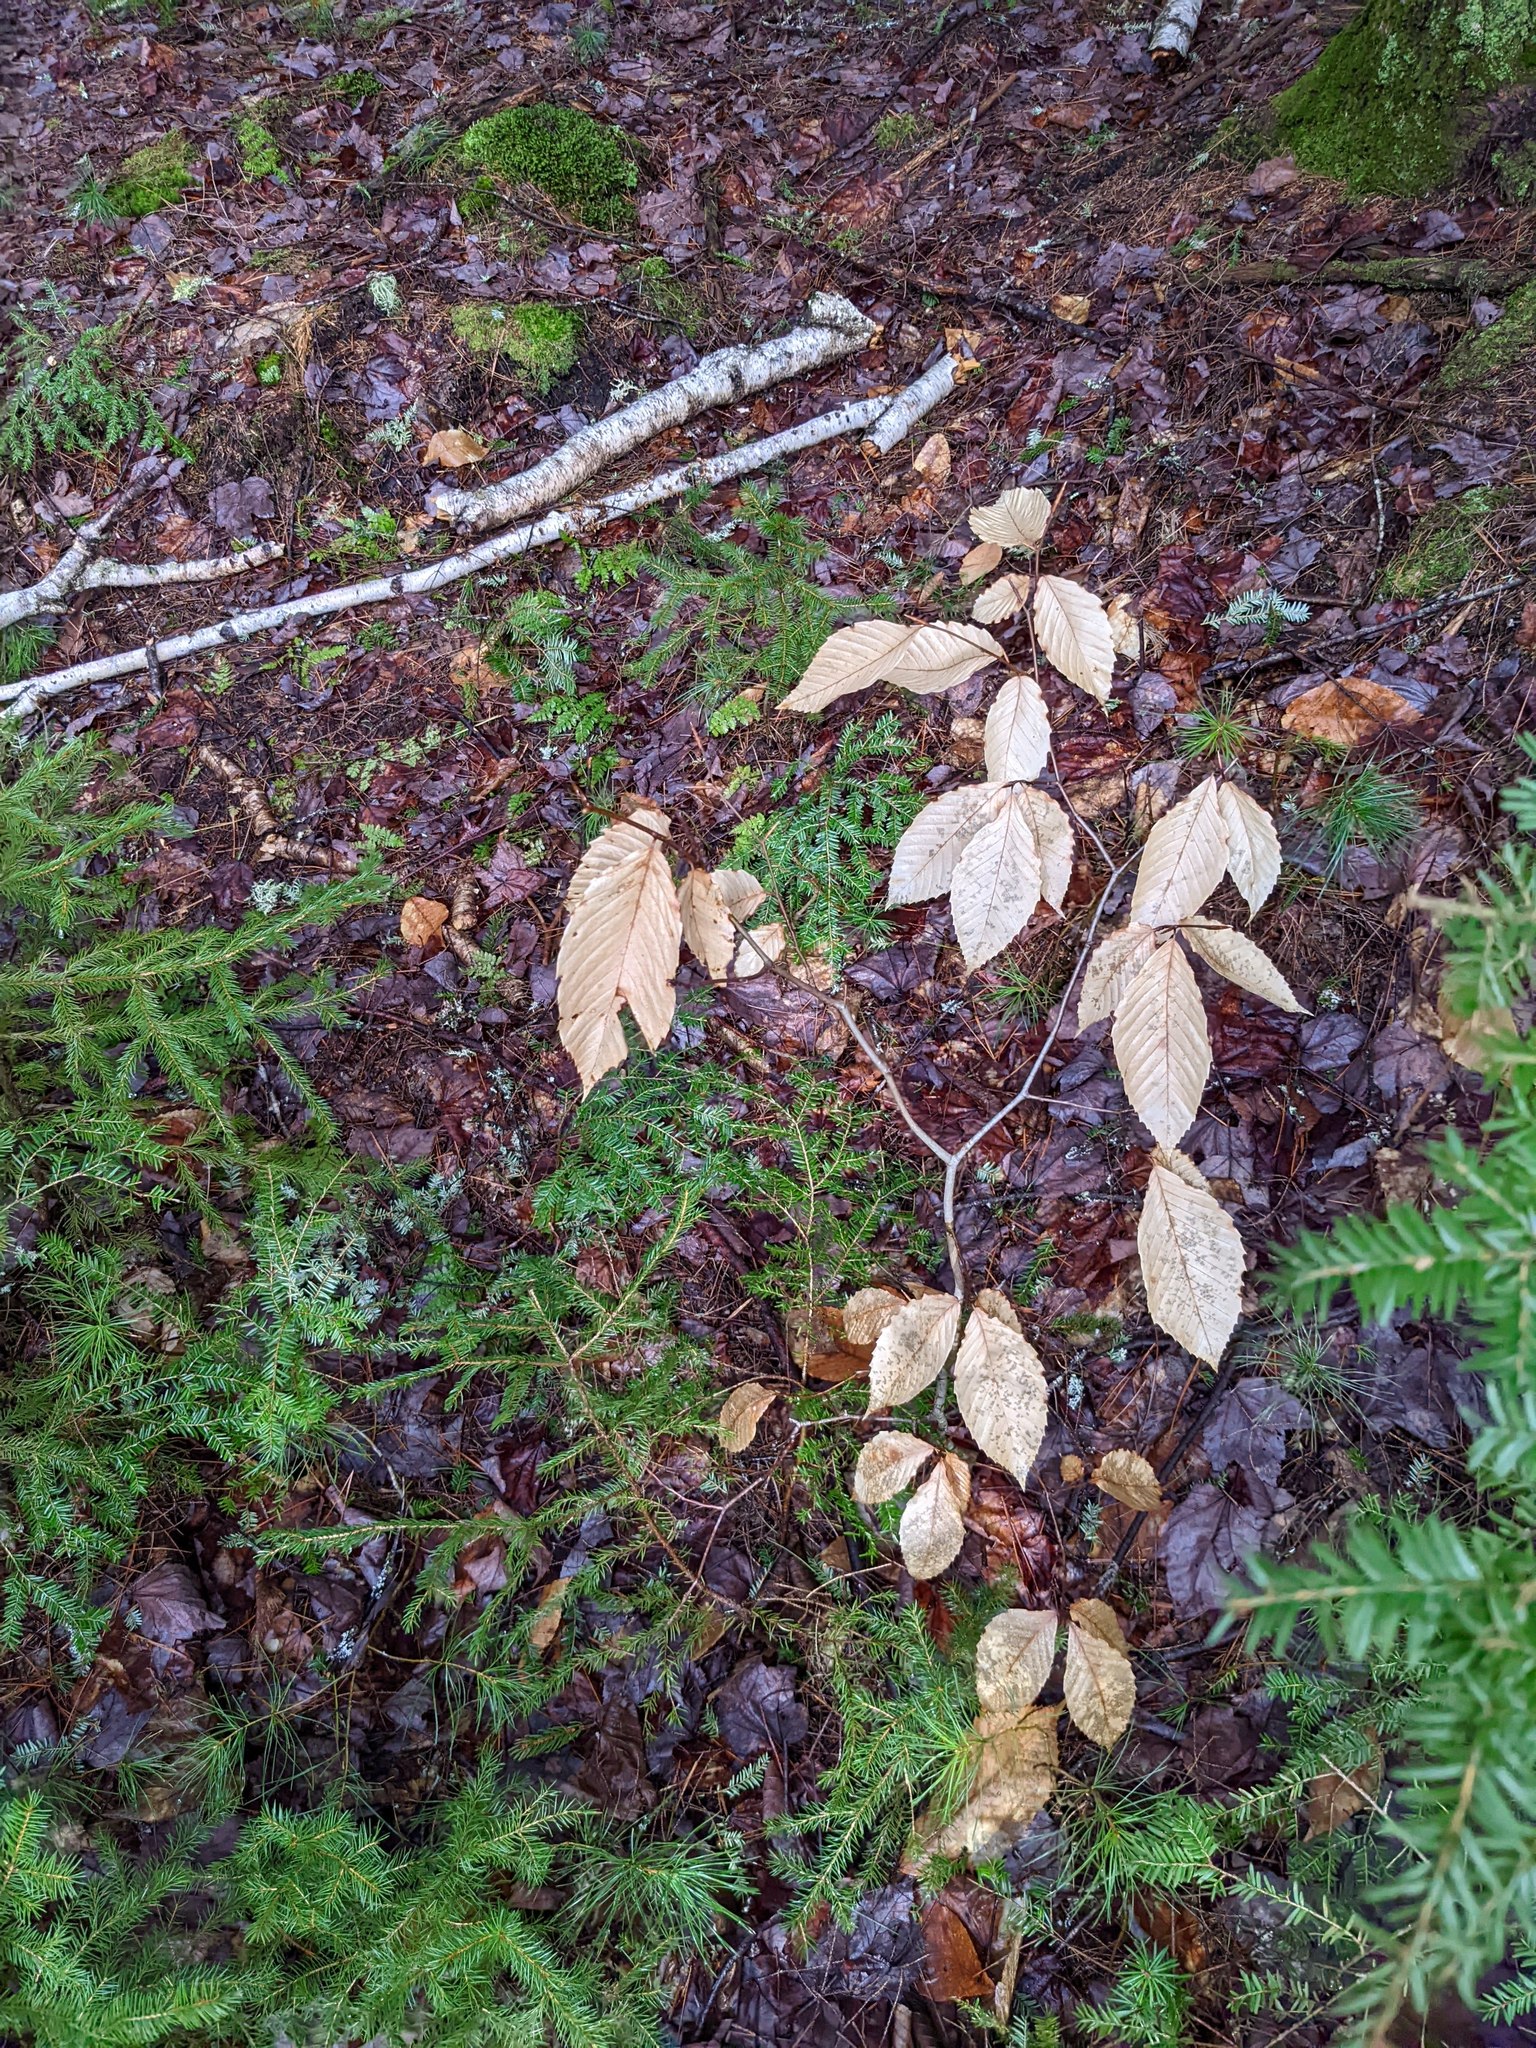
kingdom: Plantae
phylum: Tracheophyta
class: Magnoliopsida
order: Fagales
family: Fagaceae
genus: Fagus
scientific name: Fagus grandifolia
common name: American beech
